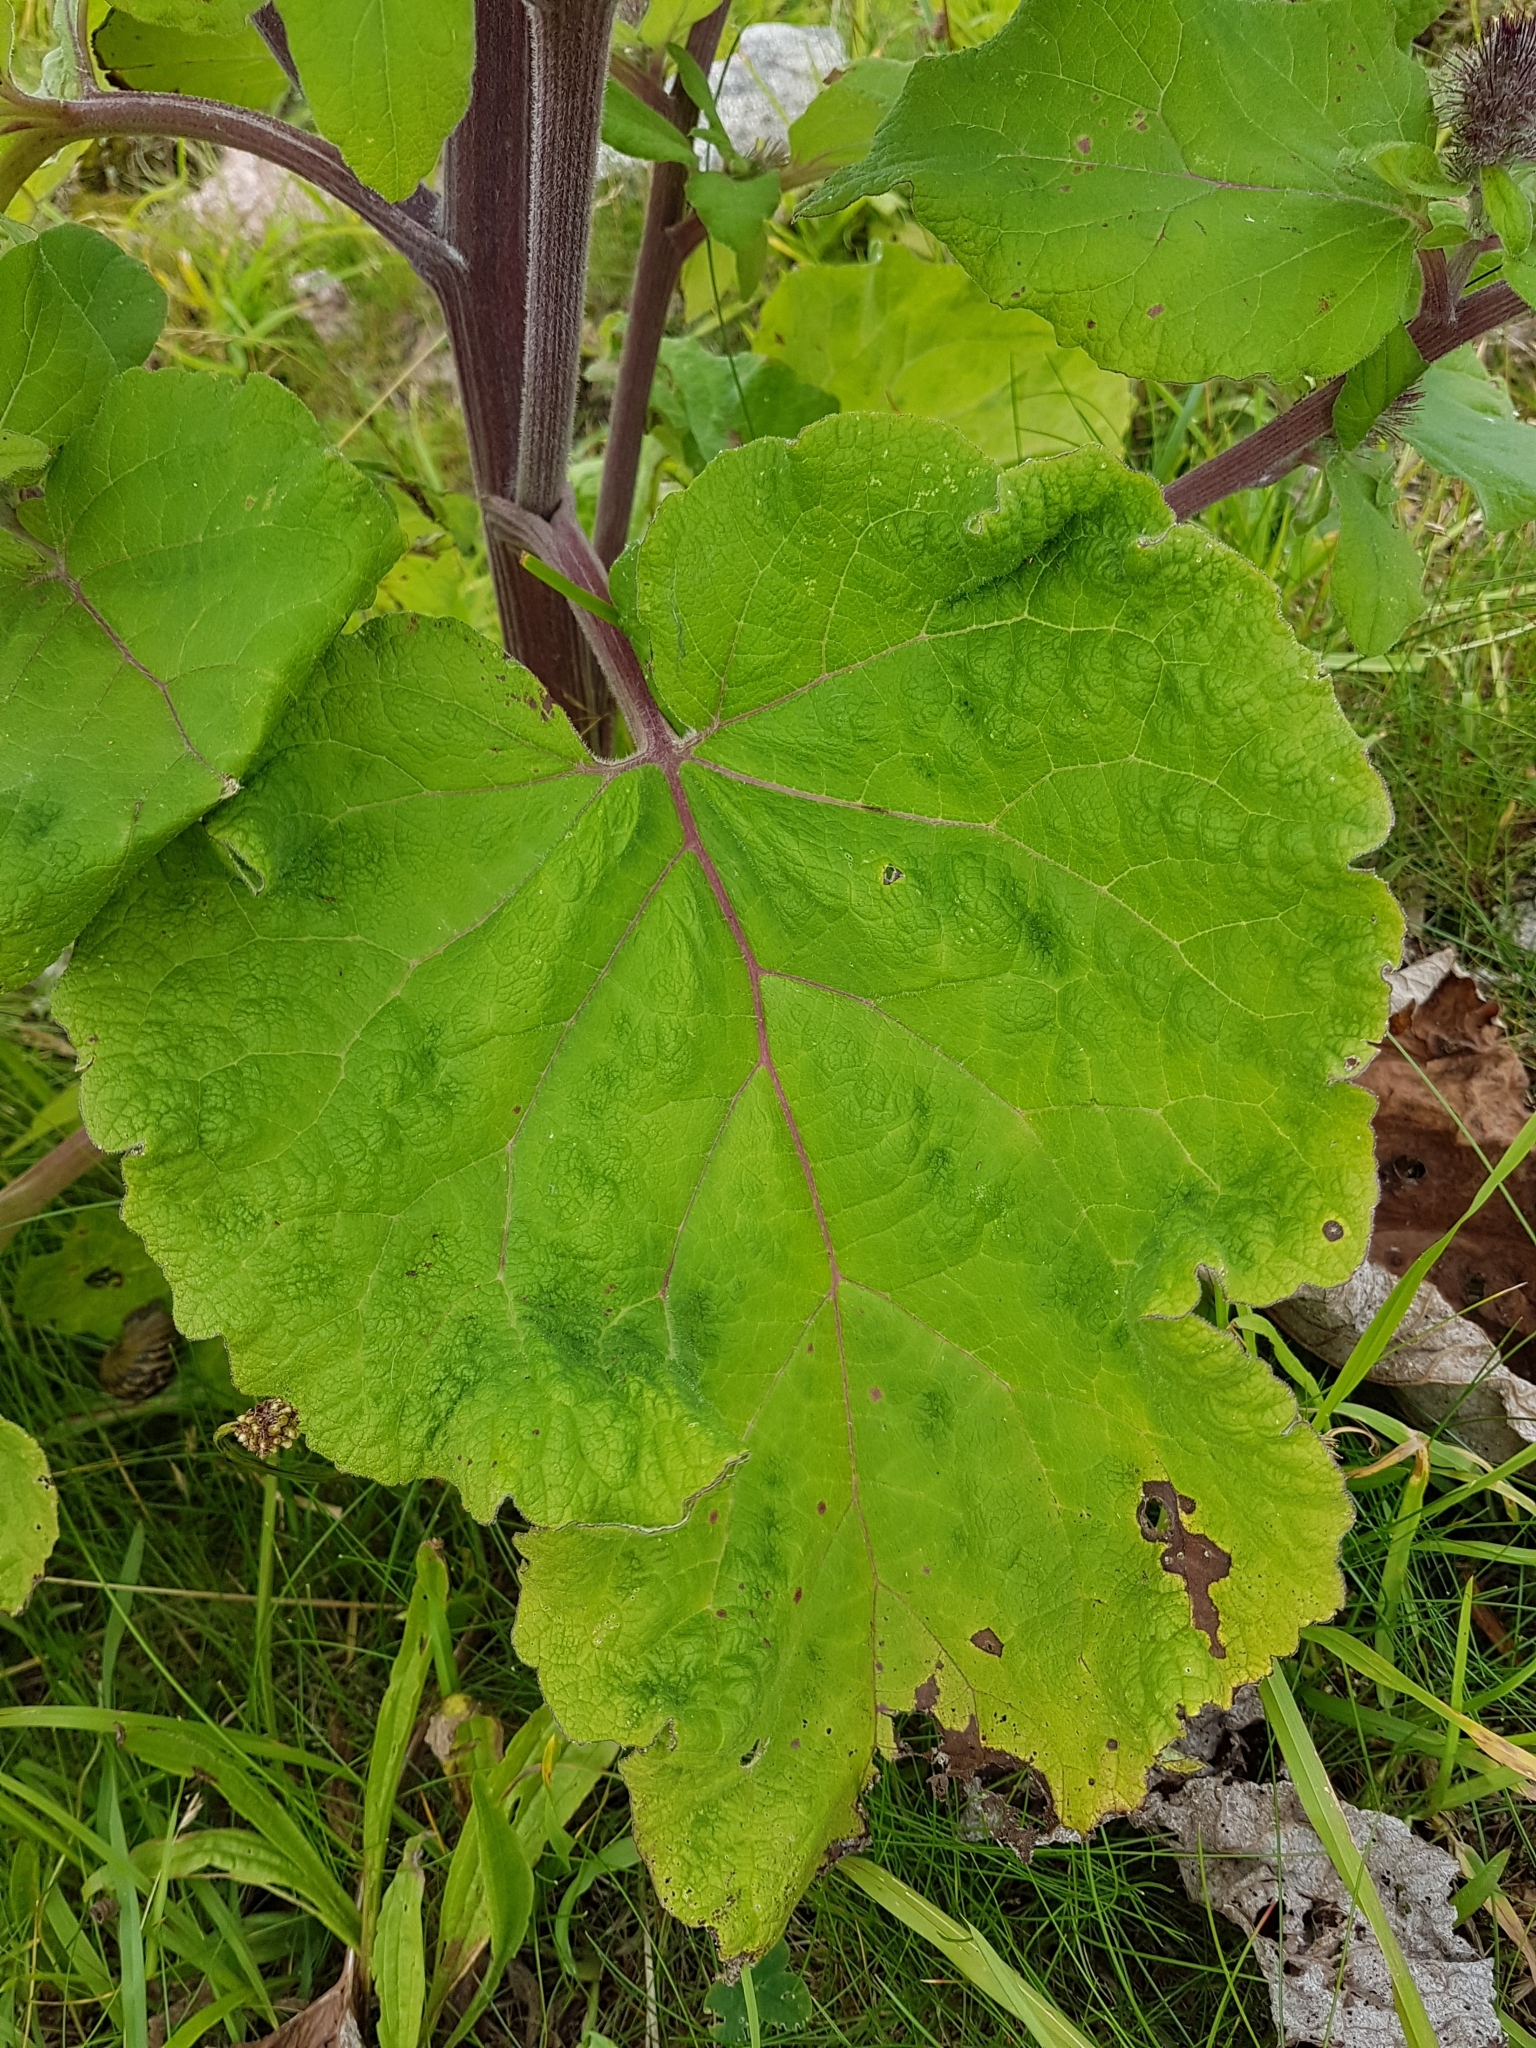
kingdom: Plantae
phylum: Tracheophyta
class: Magnoliopsida
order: Asterales
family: Asteraceae
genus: Arctium
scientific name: Arctium minus
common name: Lesser burdock
